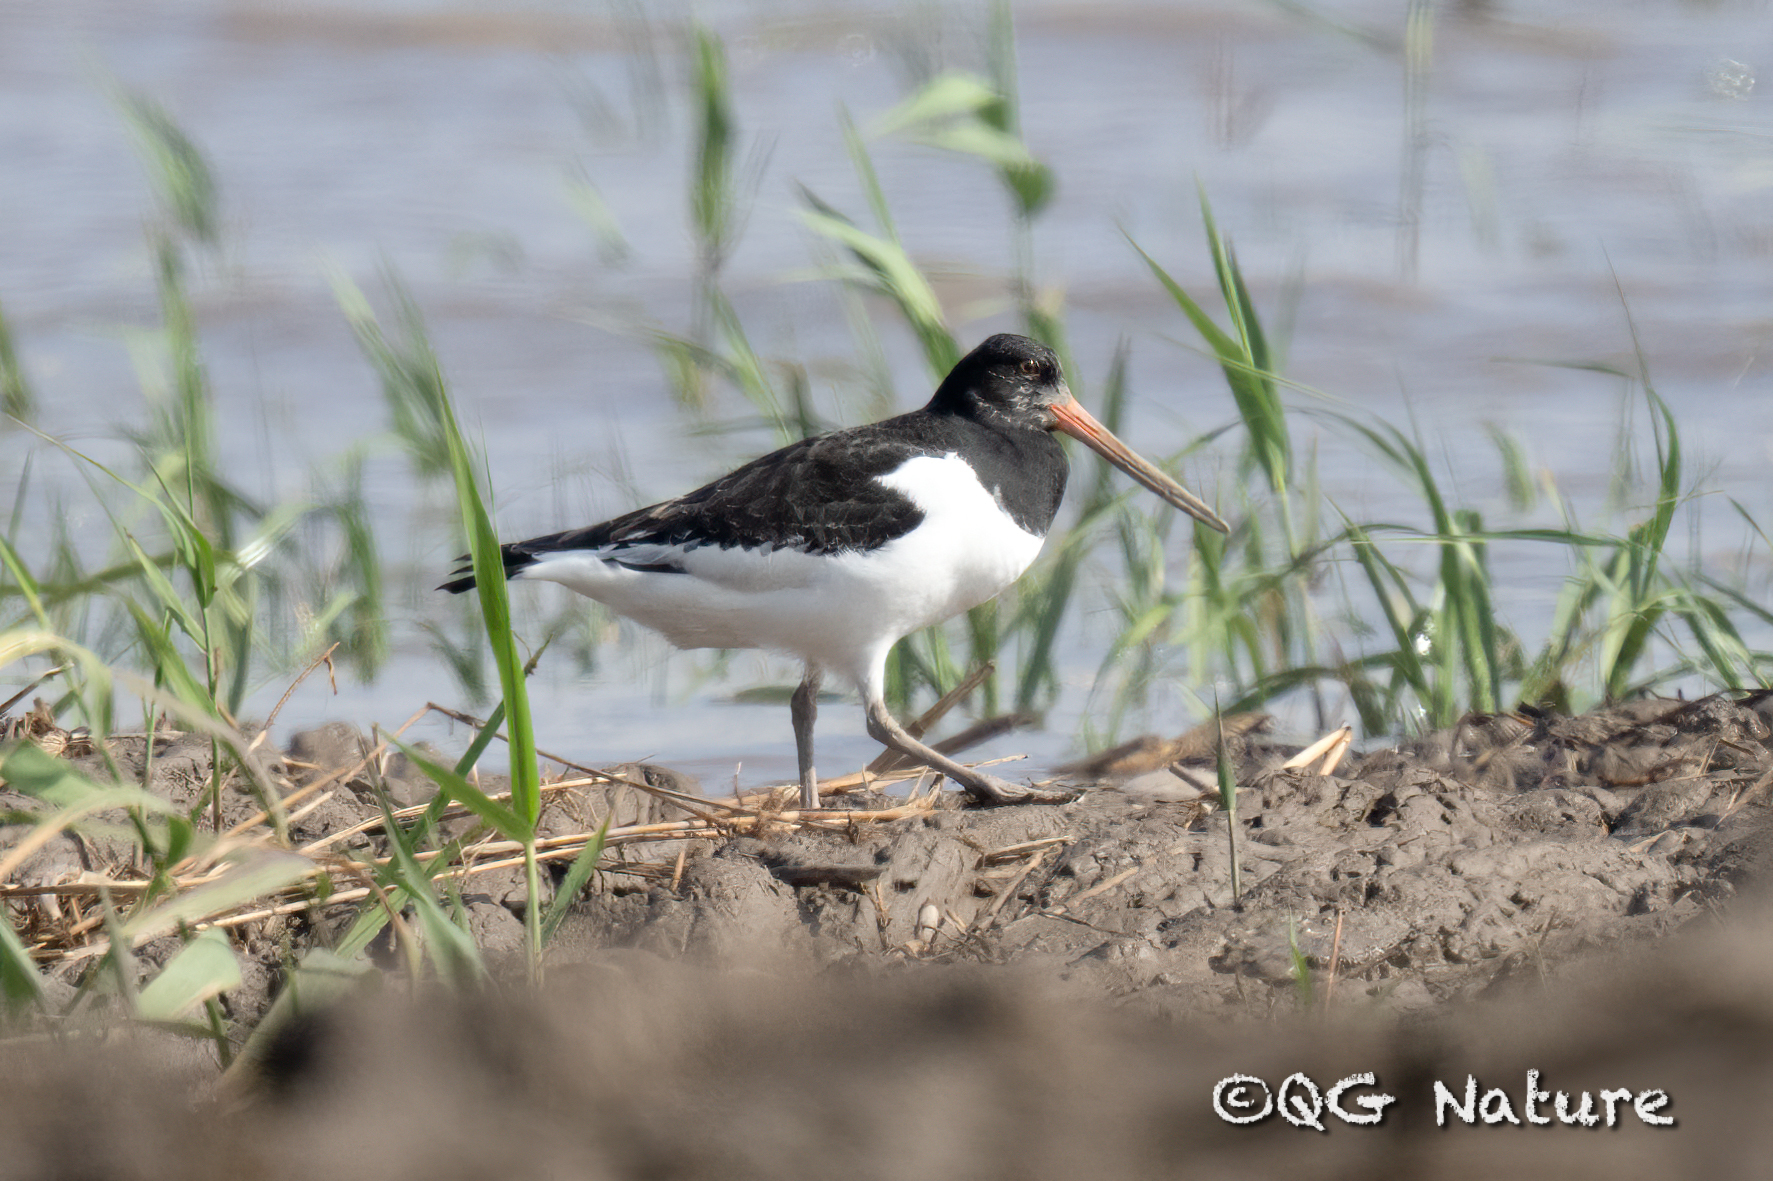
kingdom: Animalia
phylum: Chordata
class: Aves
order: Charadriiformes
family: Haematopodidae
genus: Haematopus
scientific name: Haematopus ostralegus
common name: Eurasian oystercatcher
